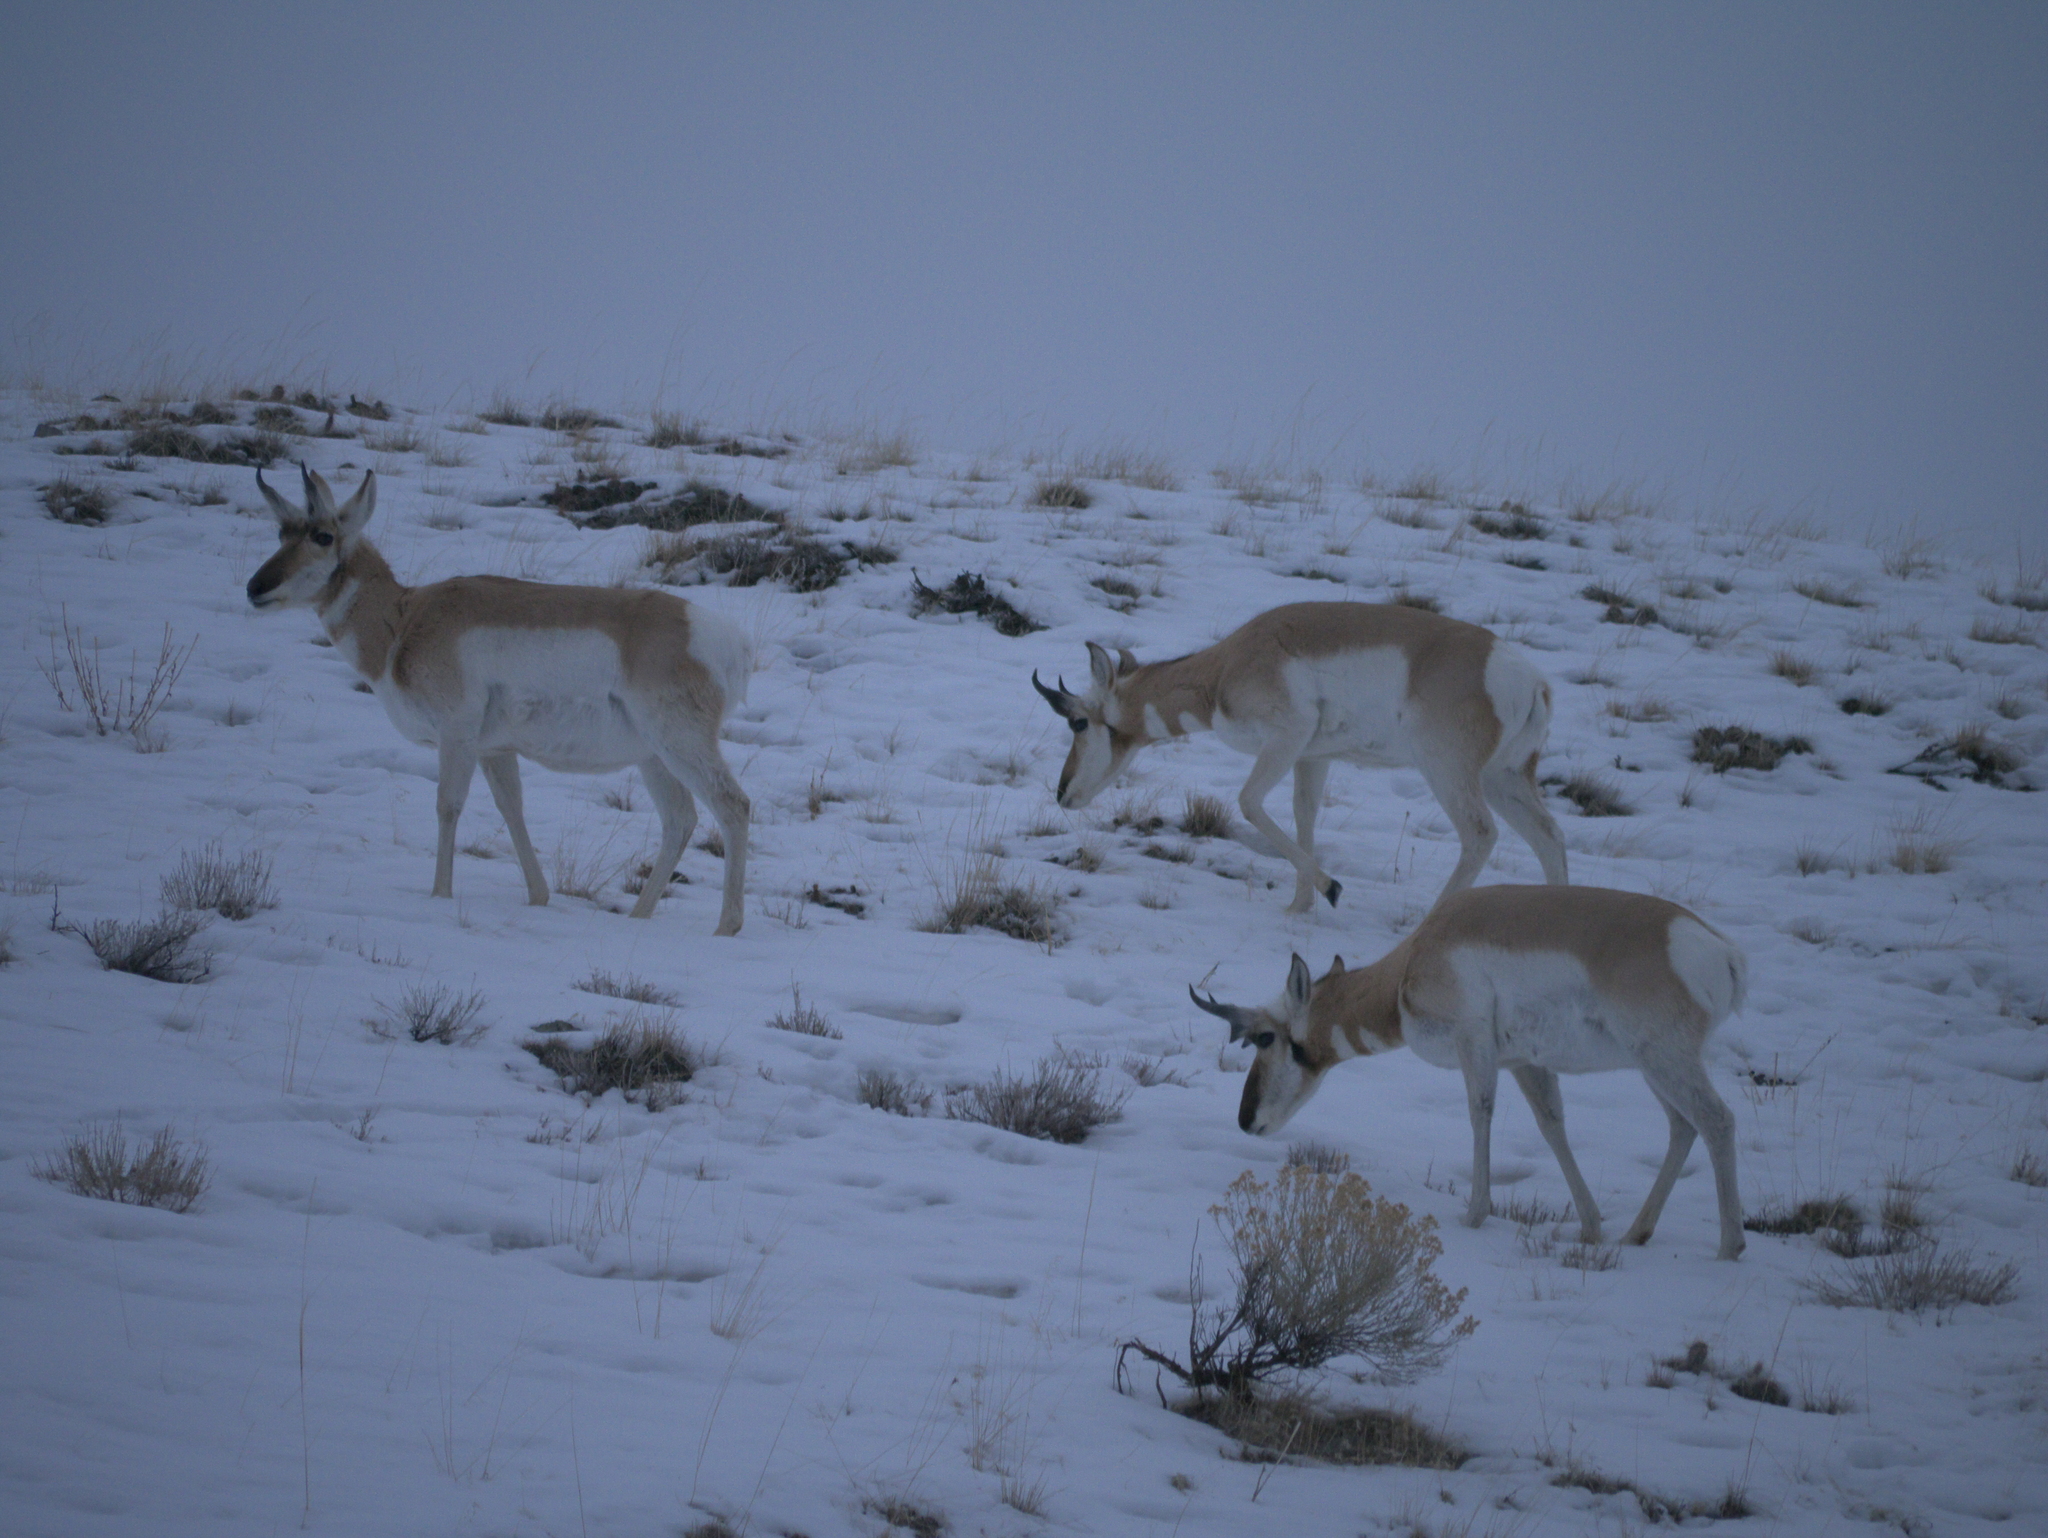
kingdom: Animalia
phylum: Chordata
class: Mammalia
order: Artiodactyla
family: Antilocapridae
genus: Antilocapra
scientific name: Antilocapra americana
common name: Pronghorn
